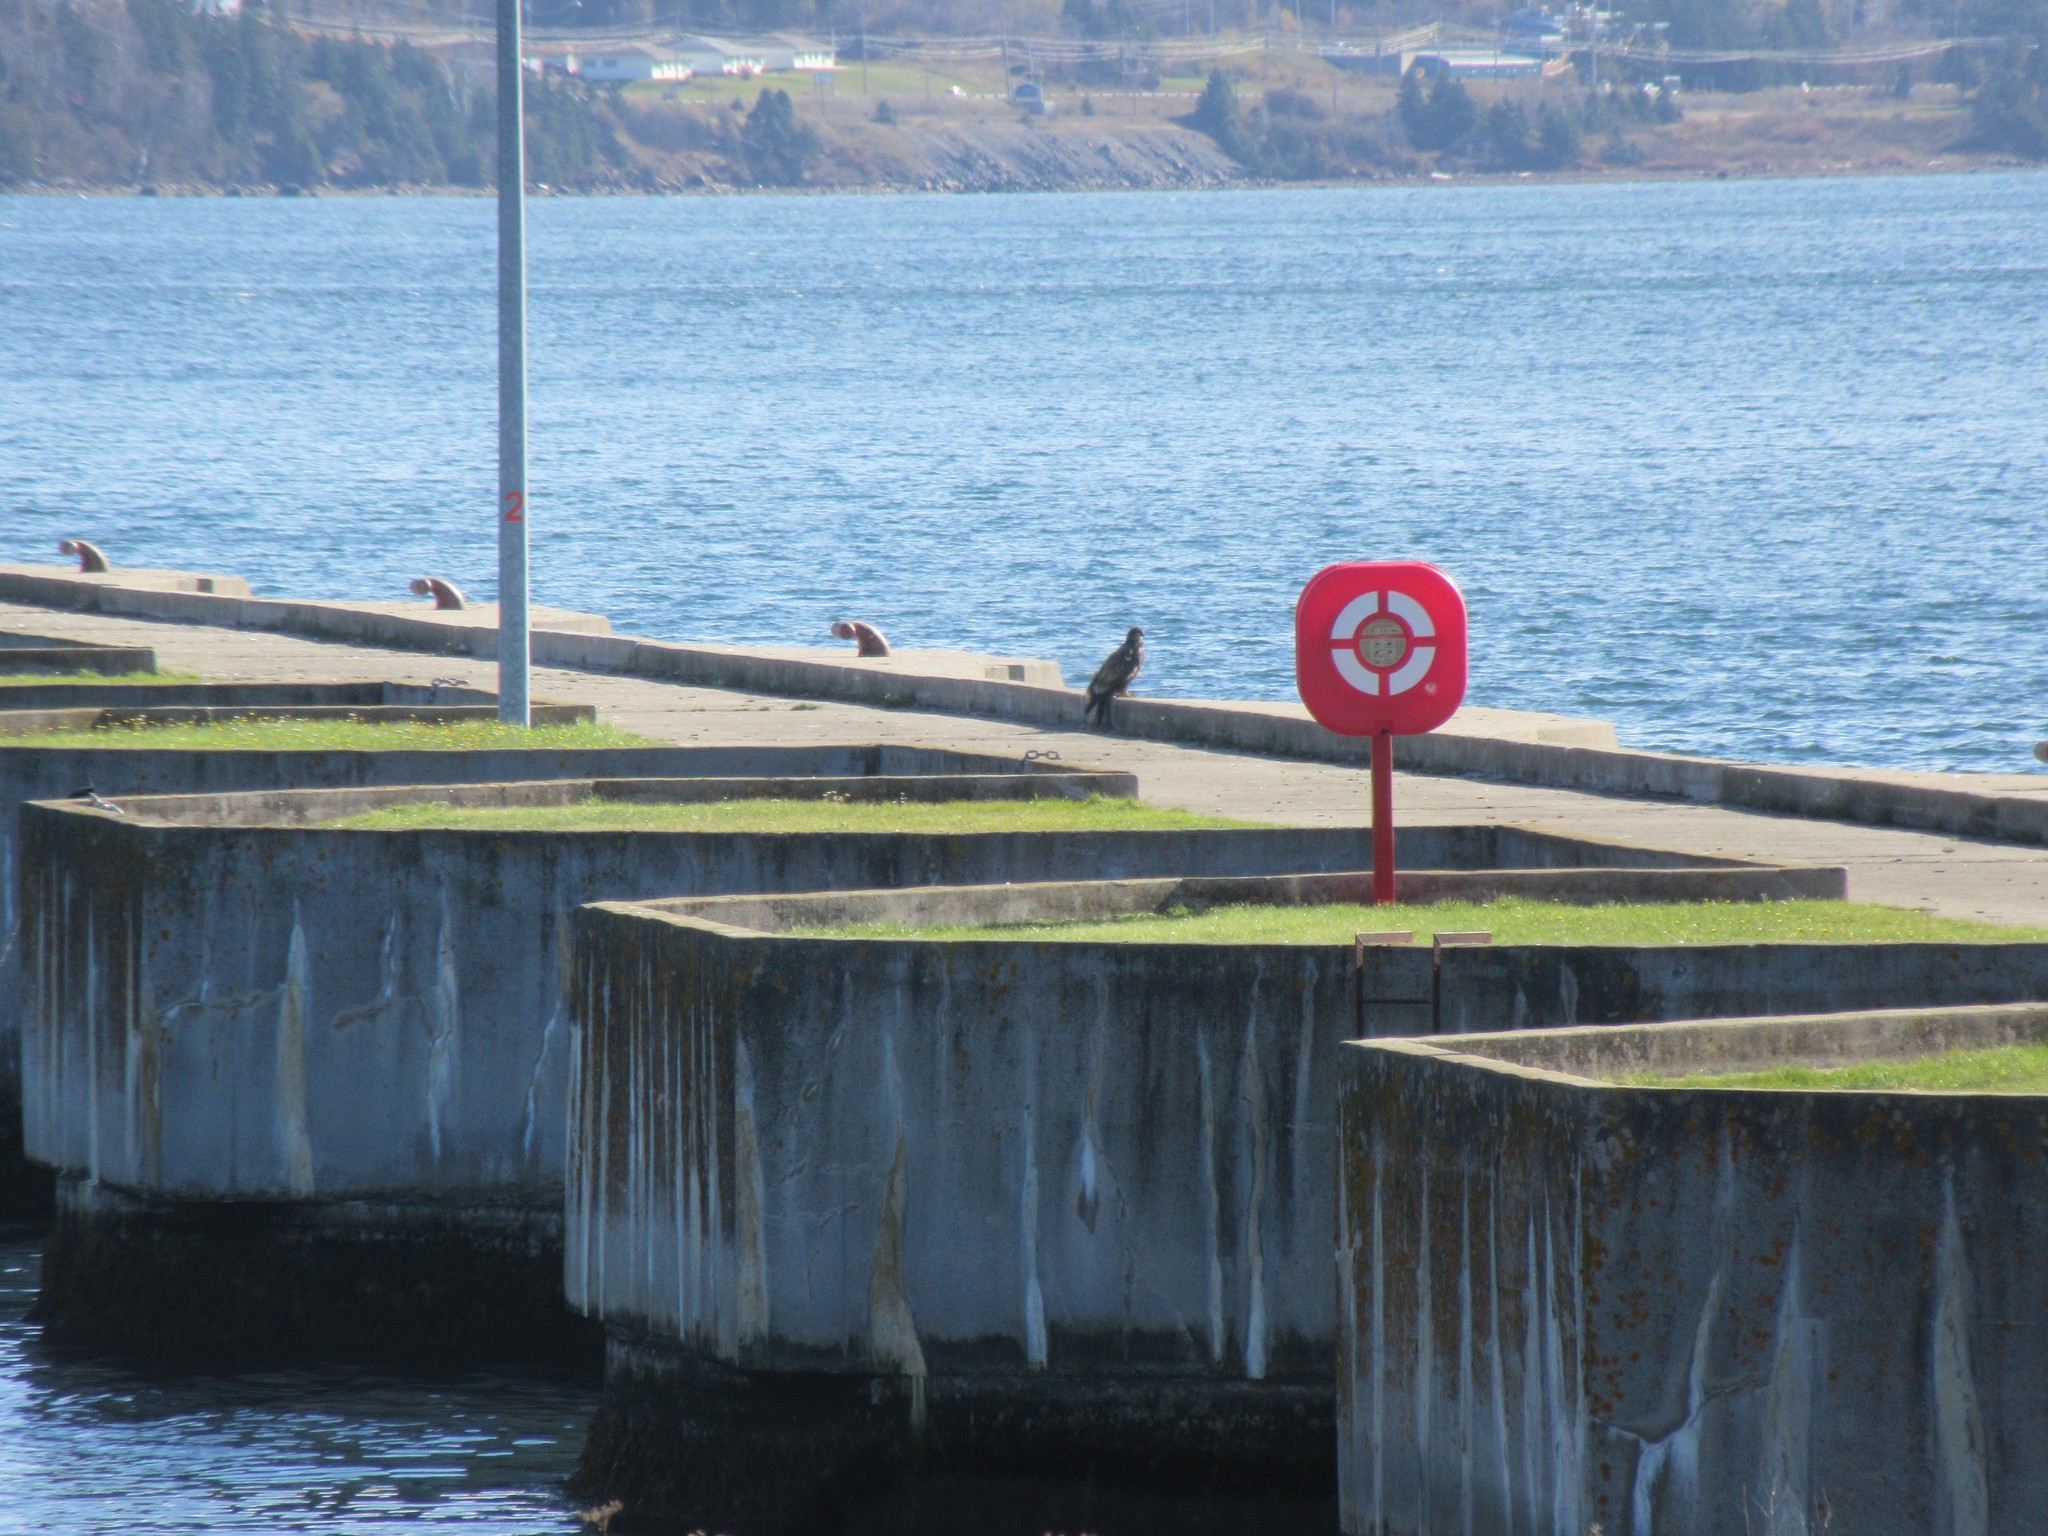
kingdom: Animalia
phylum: Chordata
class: Aves
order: Accipitriformes
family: Accipitridae
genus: Haliaeetus
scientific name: Haliaeetus leucocephalus
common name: Bald eagle
